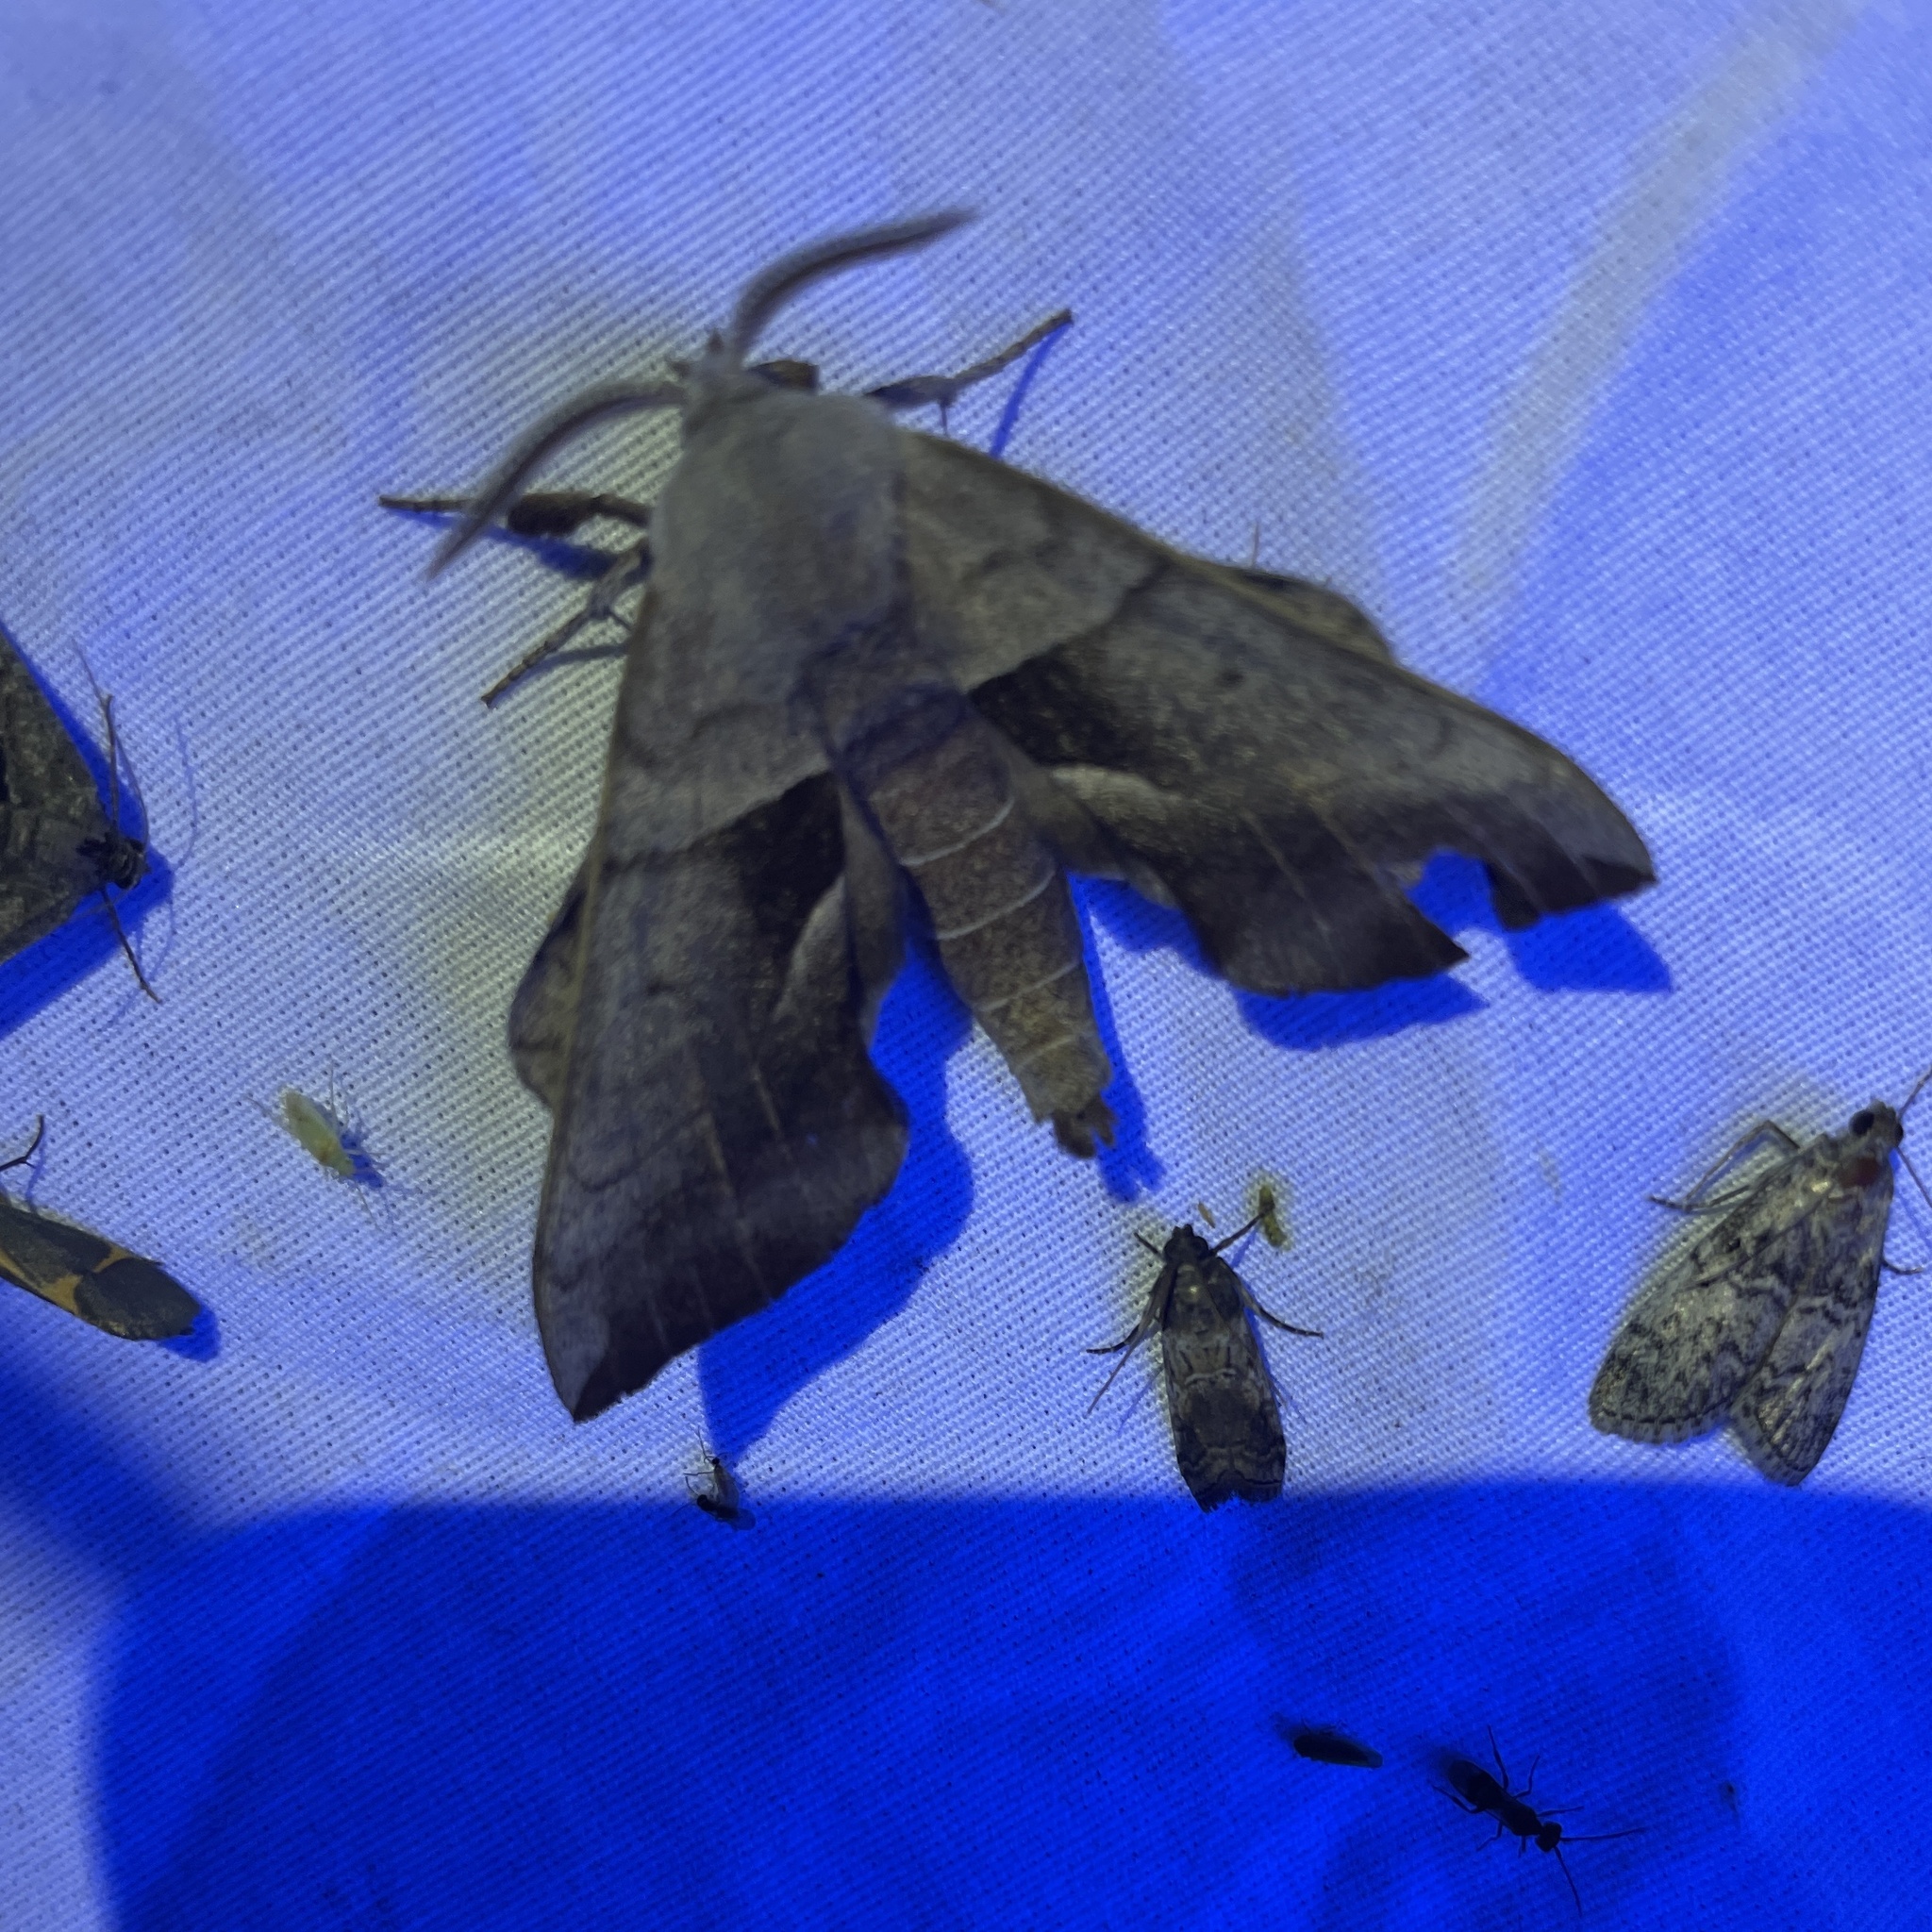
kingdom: Animalia
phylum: Arthropoda
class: Insecta
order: Lepidoptera
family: Sphingidae
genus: Amorpha
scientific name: Amorpha juglandis
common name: Walnut sphinx
